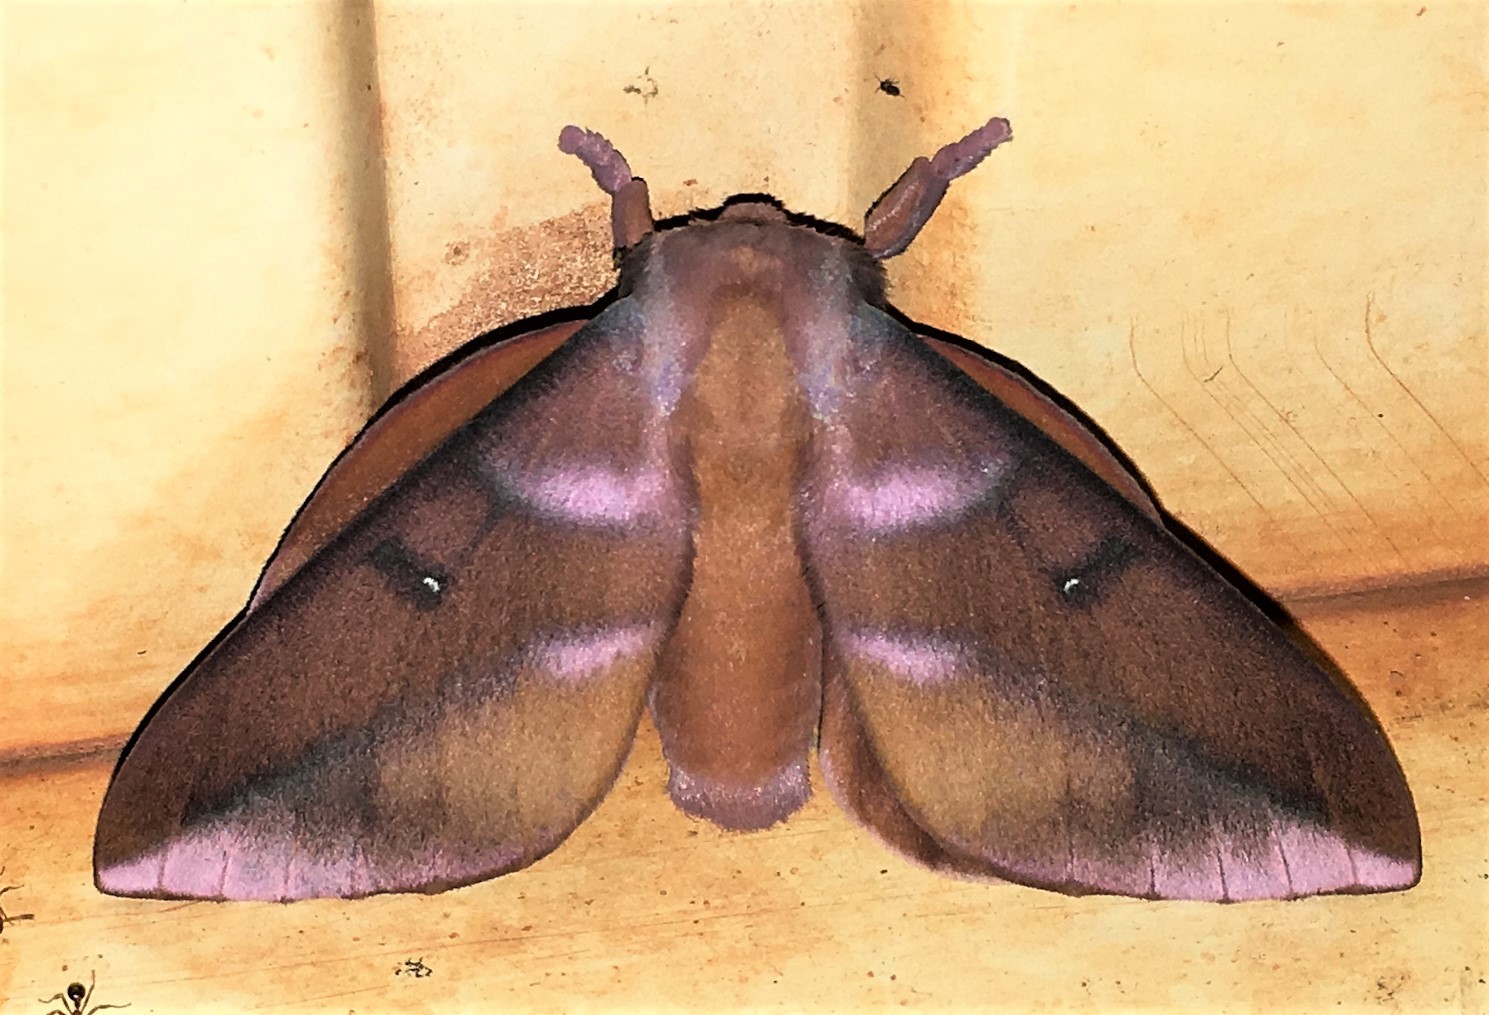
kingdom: Animalia
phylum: Arthropoda
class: Insecta
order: Lepidoptera
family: Saturniidae
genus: Othorene
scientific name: Othorene purpurascens
